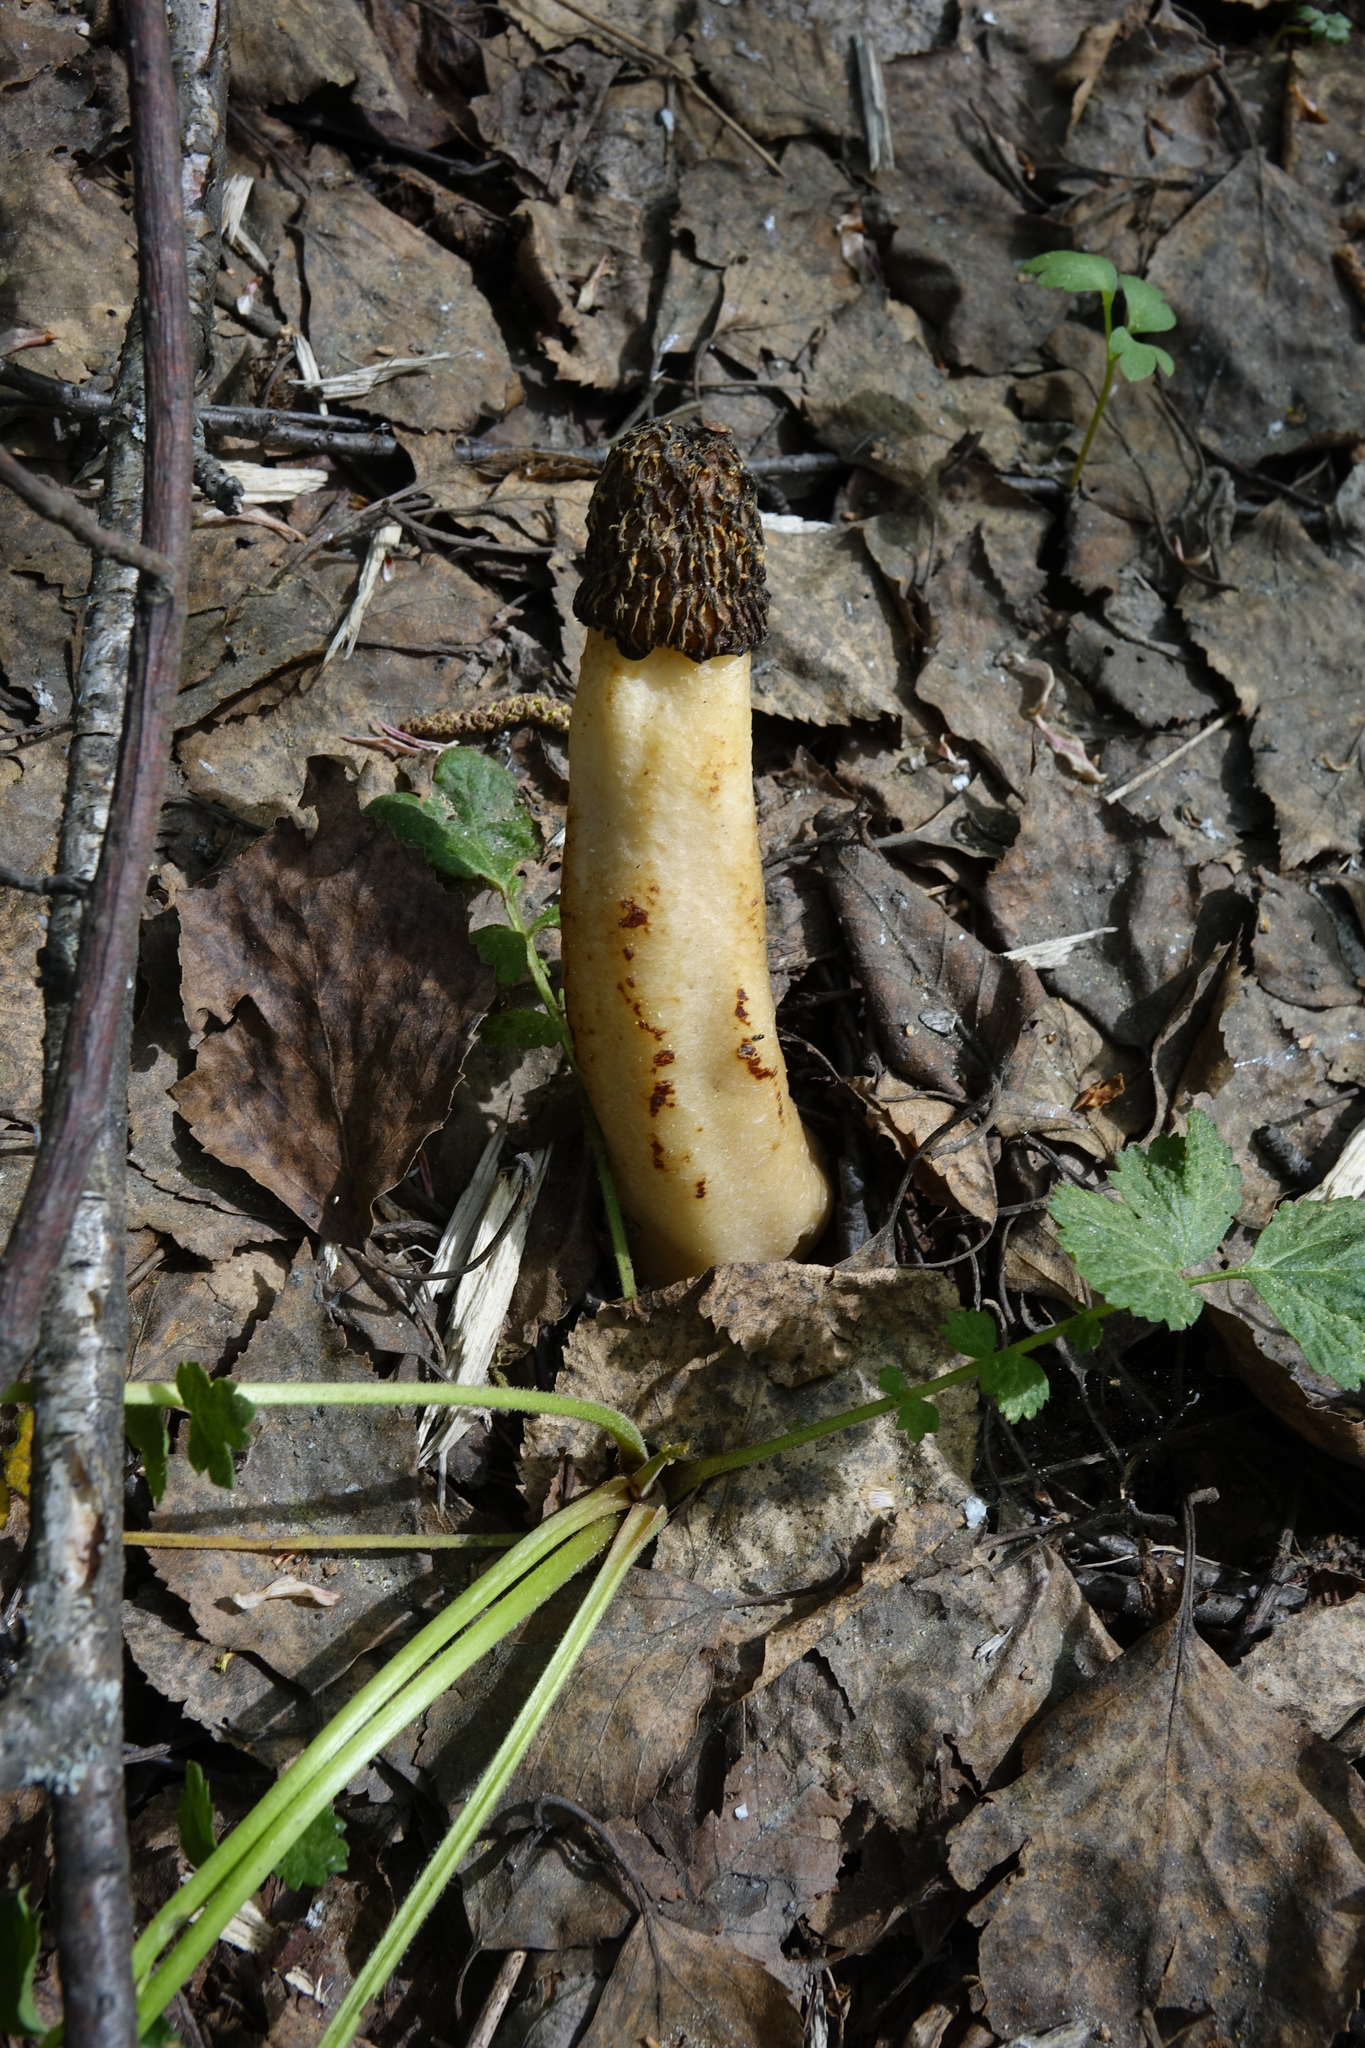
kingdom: Fungi
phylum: Ascomycota
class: Pezizomycetes
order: Pezizales
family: Morchellaceae
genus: Verpa
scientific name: Verpa bohemica
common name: Wrinkled thimble morel
